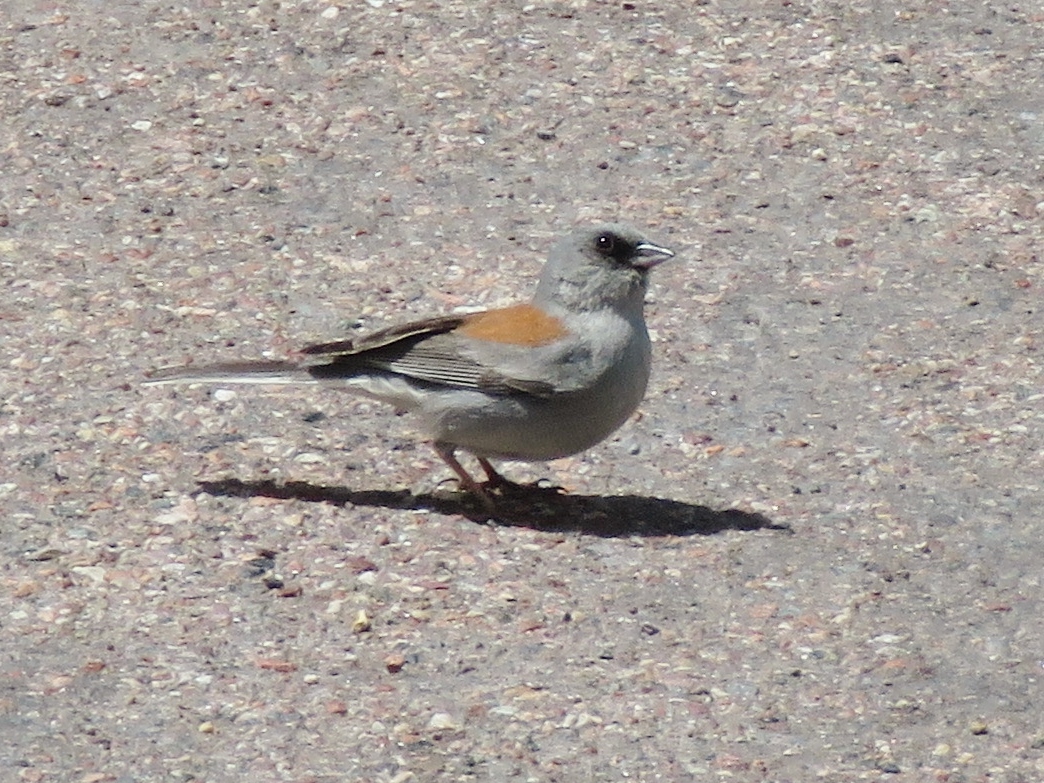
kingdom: Animalia
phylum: Chordata
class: Aves
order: Passeriformes
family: Passerellidae
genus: Junco
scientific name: Junco hyemalis
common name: Dark-eyed junco
